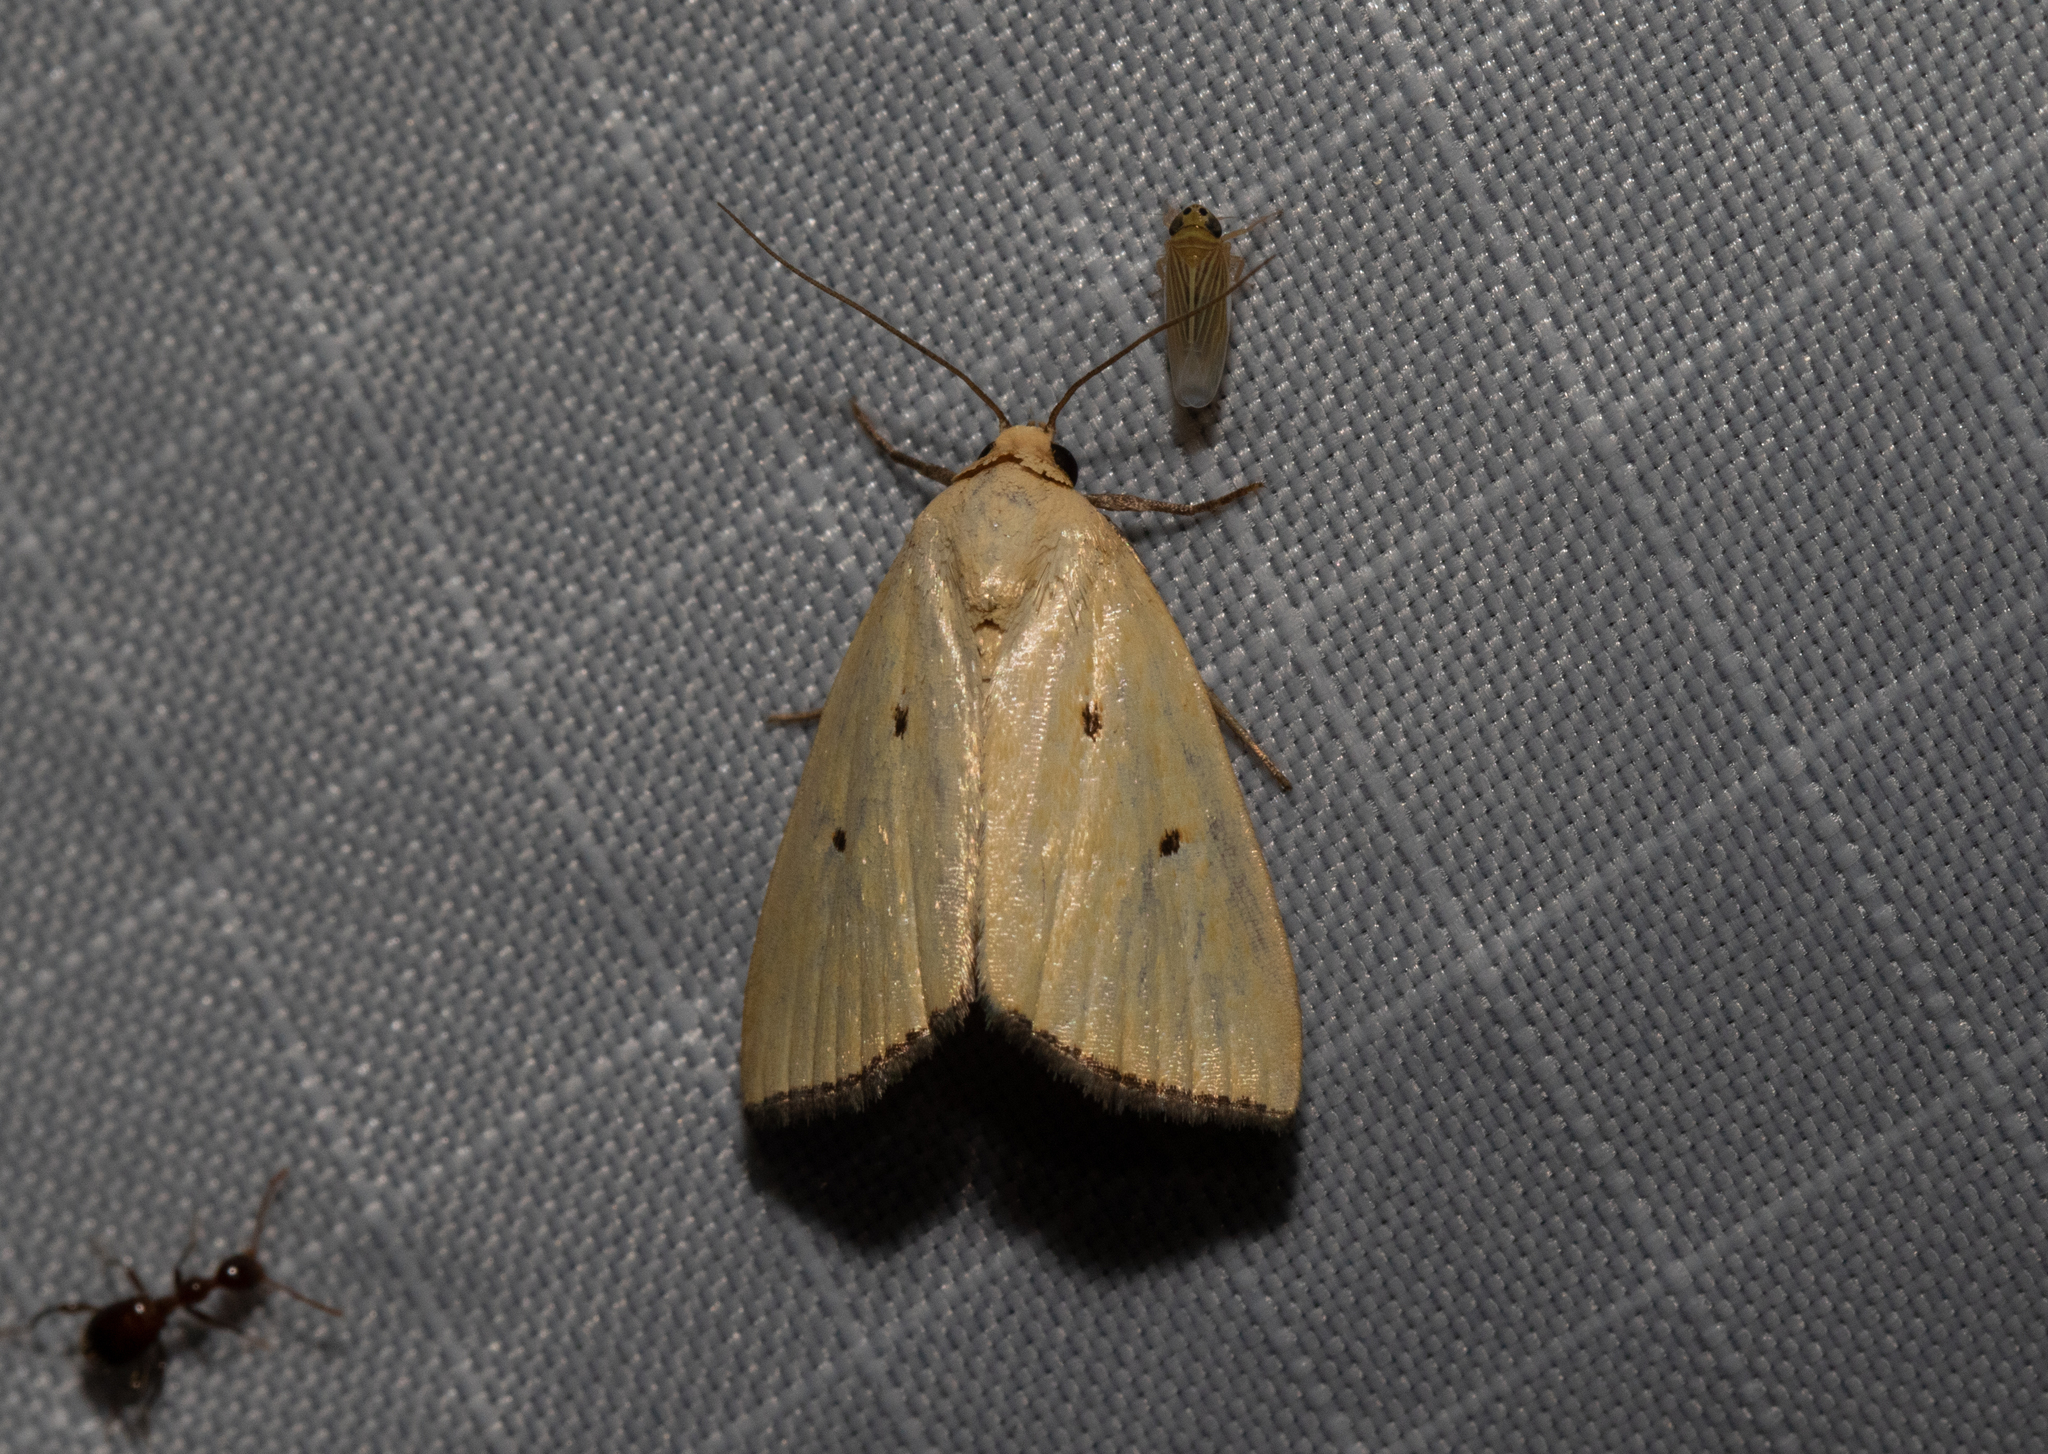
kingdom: Animalia
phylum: Arthropoda
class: Insecta
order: Lepidoptera
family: Noctuidae
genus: Marimatha
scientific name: Marimatha nigrofimbria
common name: Black-bordered lemon moth
